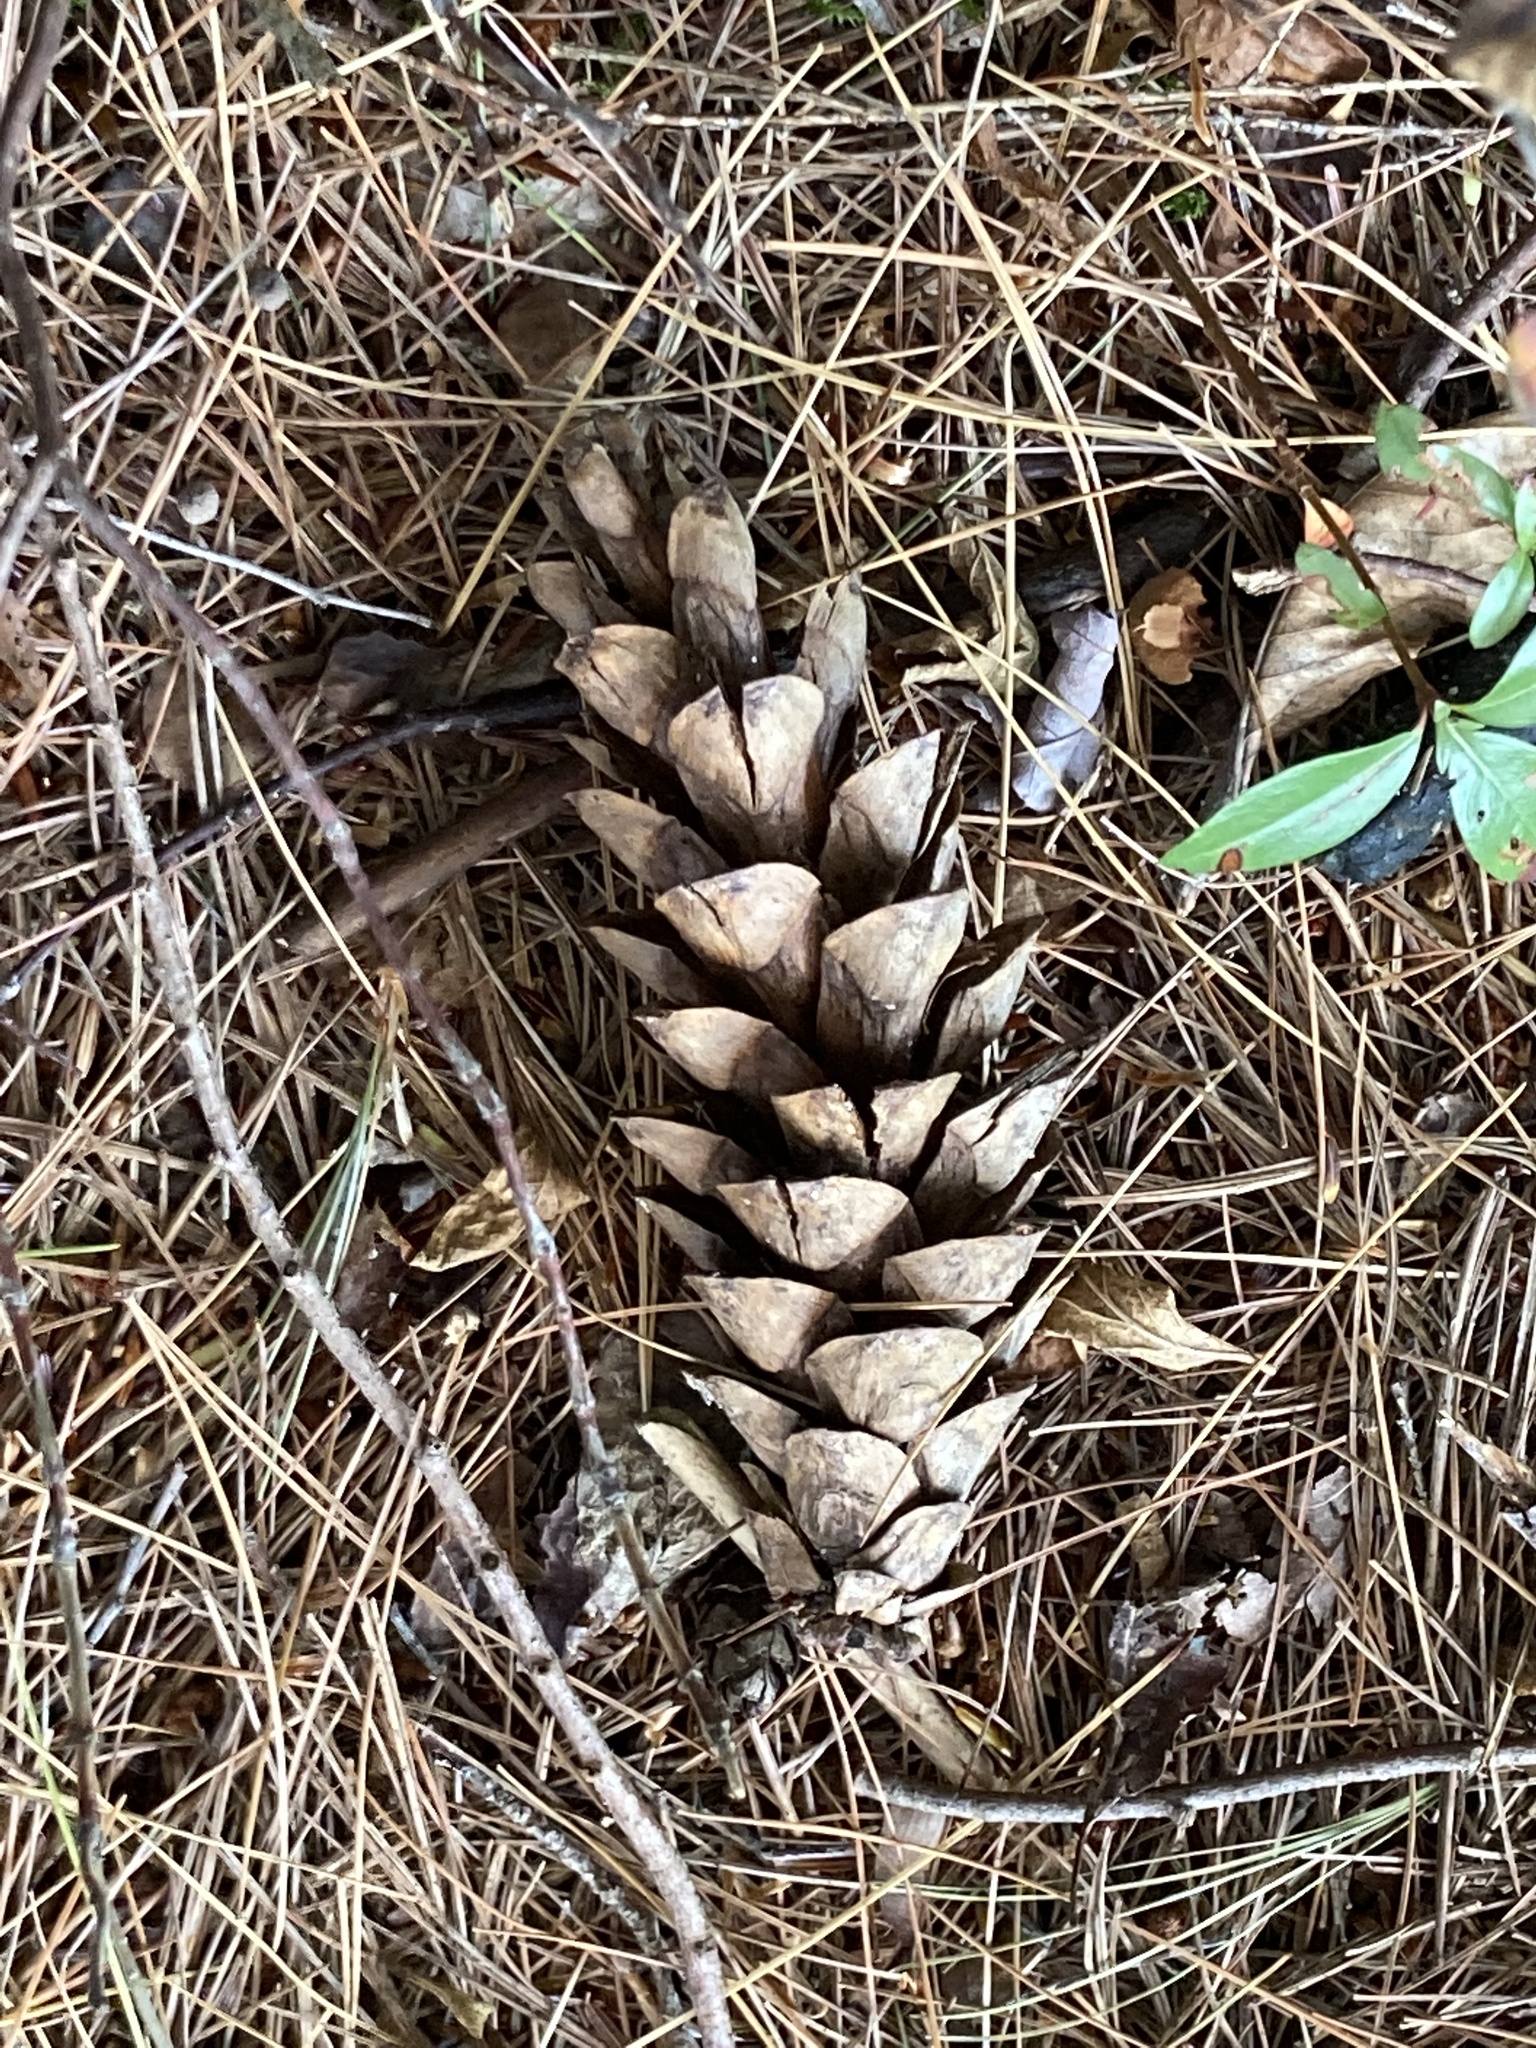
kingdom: Plantae
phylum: Tracheophyta
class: Pinopsida
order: Pinales
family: Pinaceae
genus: Pinus
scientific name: Pinus strobus
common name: Weymouth pine
